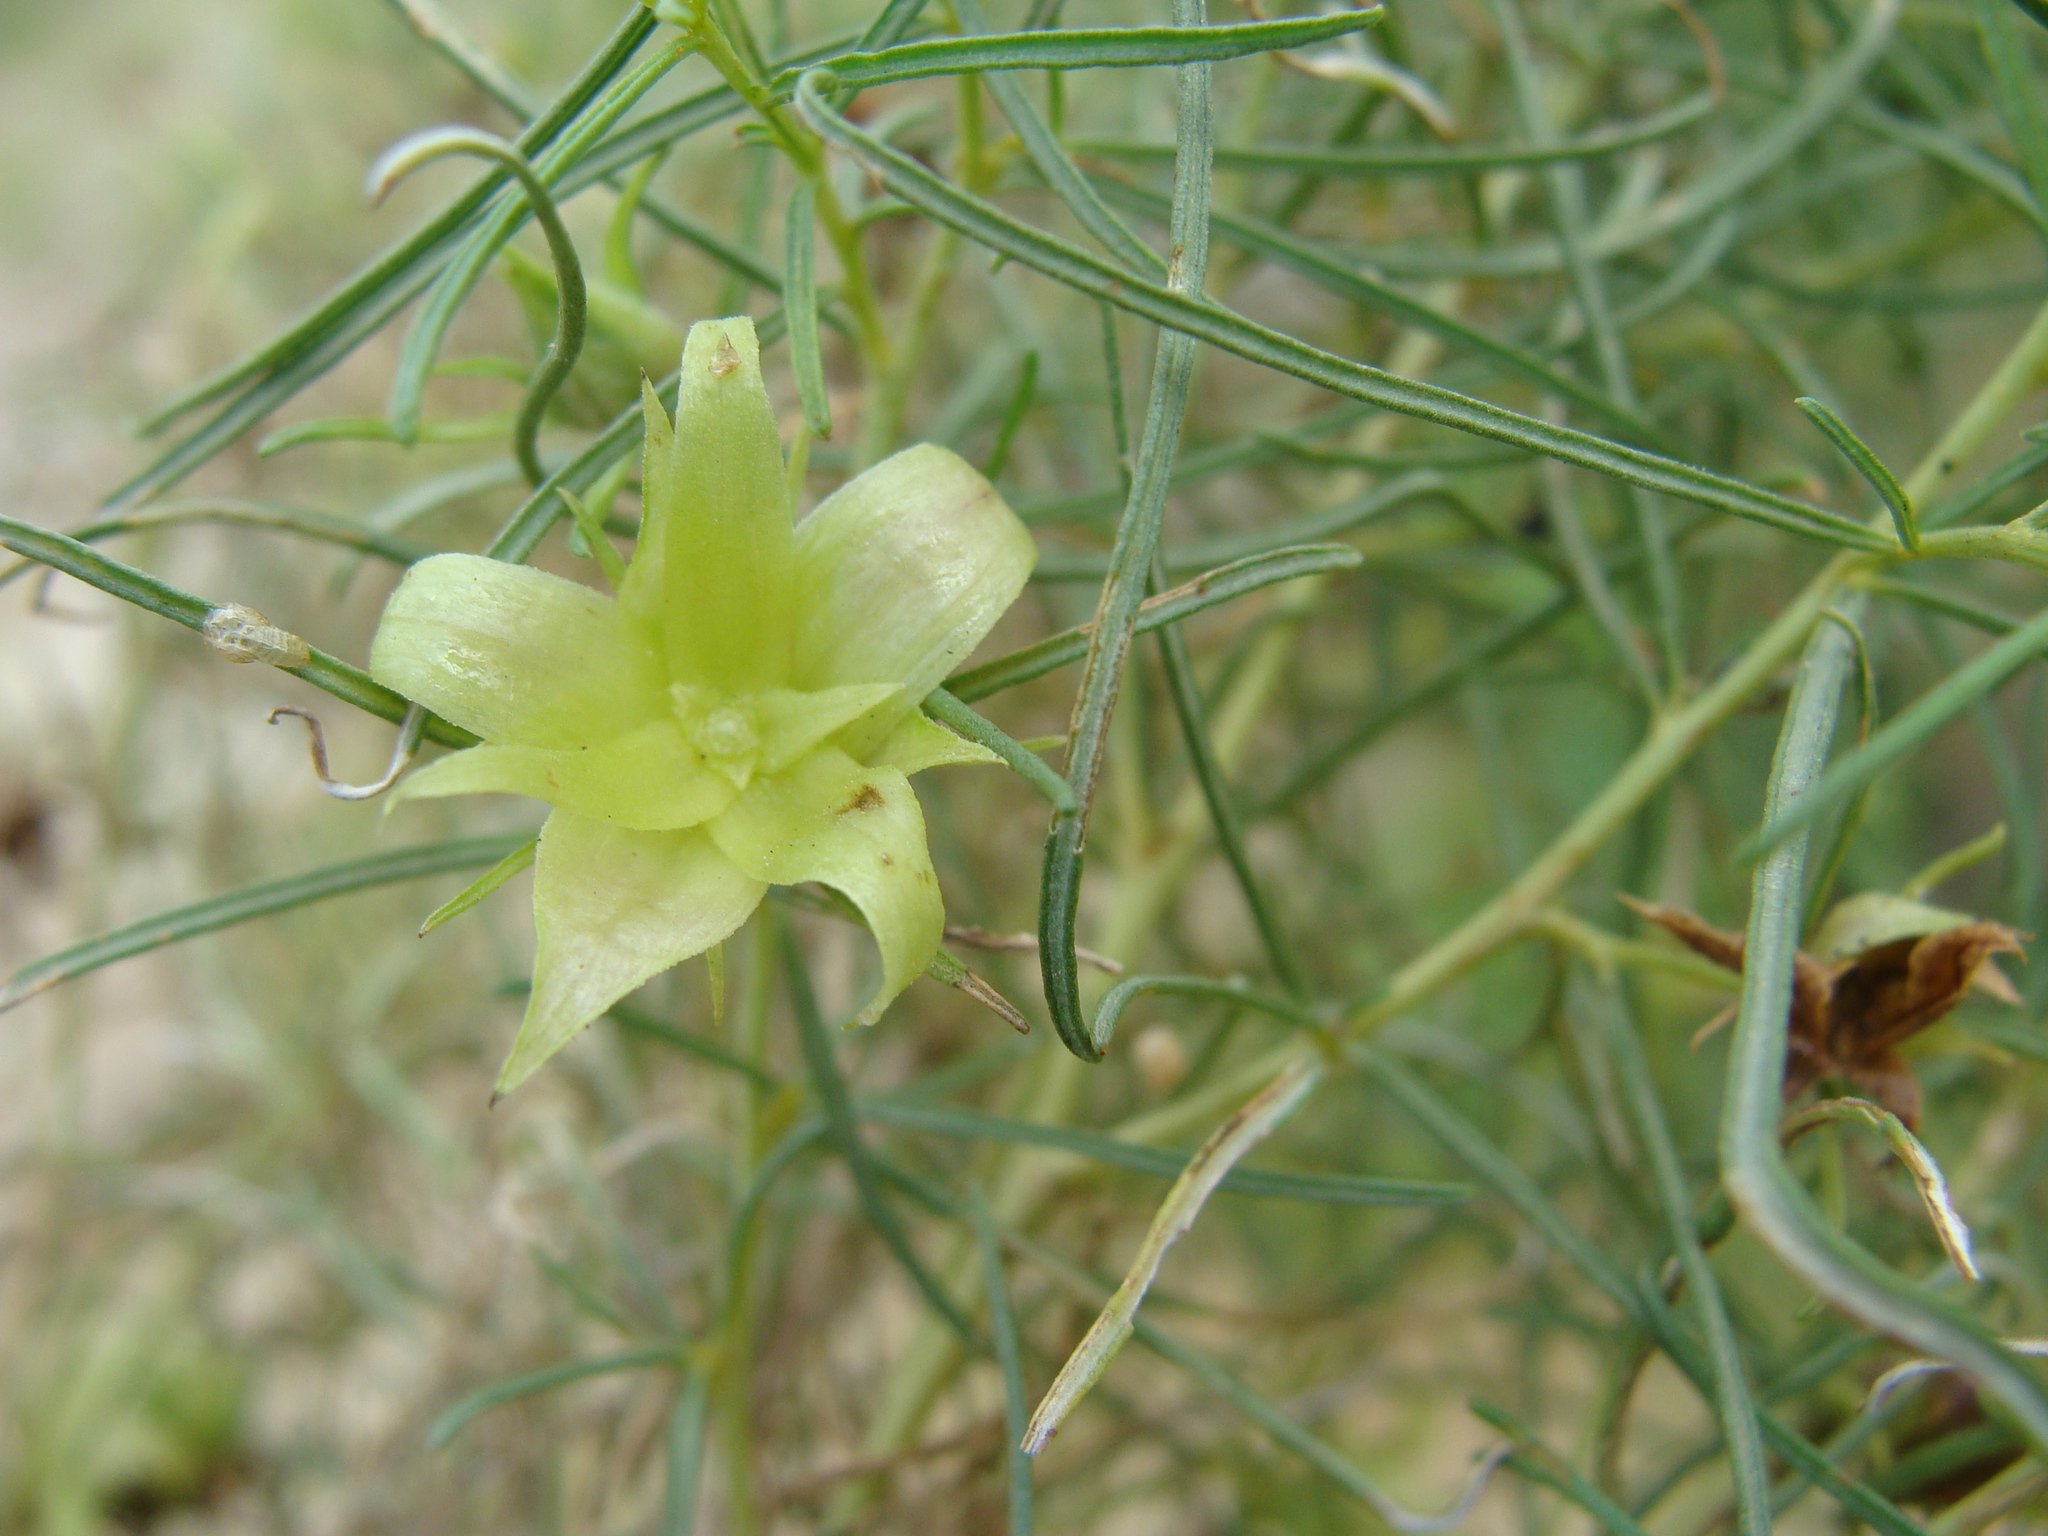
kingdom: Plantae
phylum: Tracheophyta
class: Magnoliopsida
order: Asterales
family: Asteraceae
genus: Ambrosia
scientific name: Ambrosia monogyra
